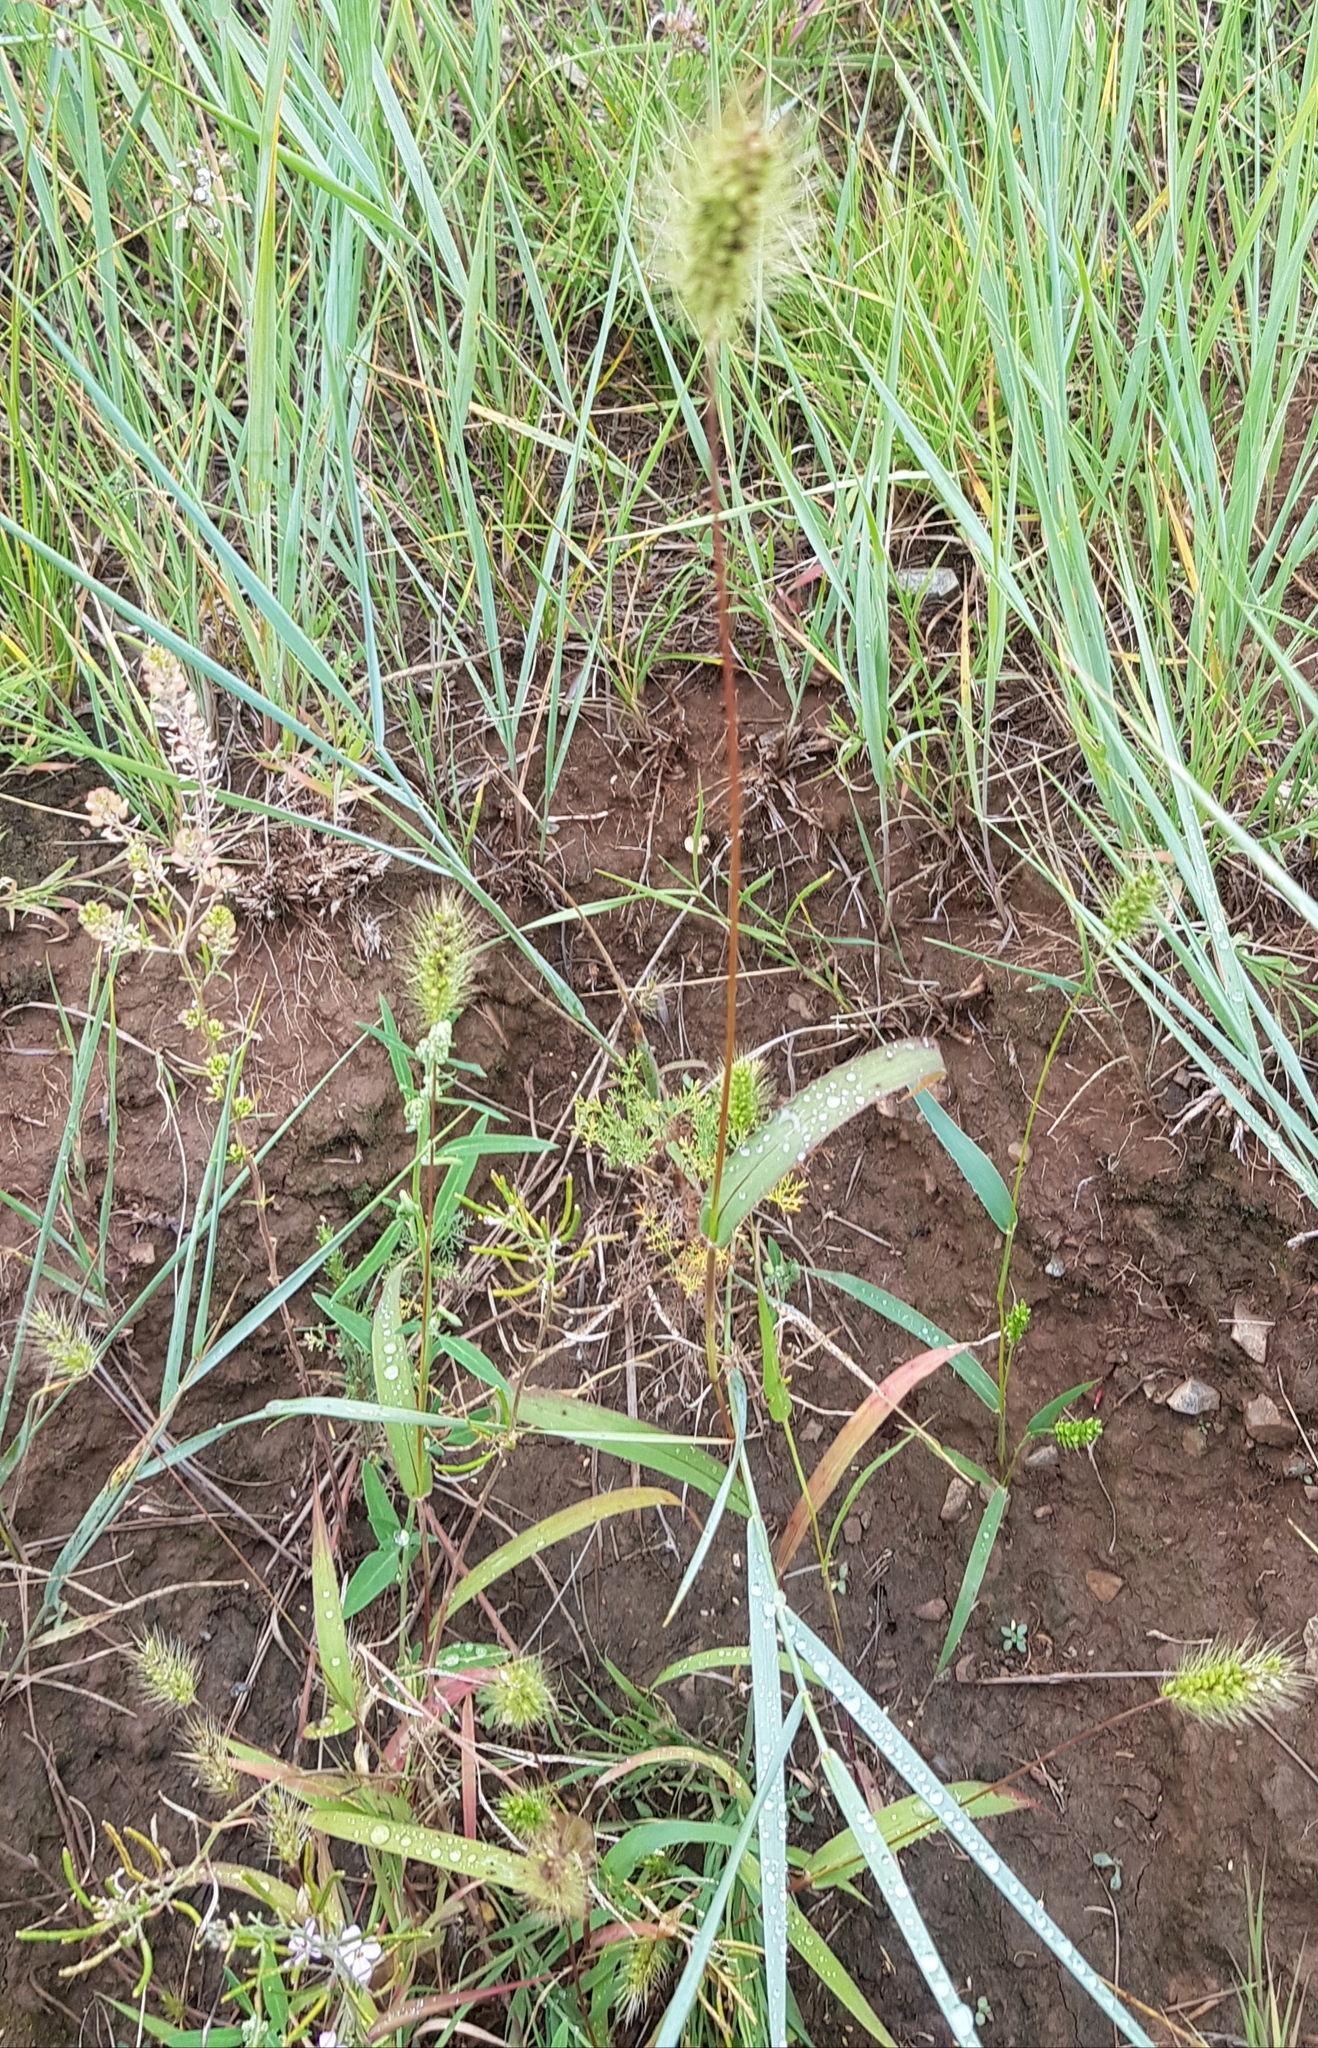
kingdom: Plantae
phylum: Tracheophyta
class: Liliopsida
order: Poales
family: Poaceae
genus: Setaria
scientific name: Setaria viridis
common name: Green bristlegrass
